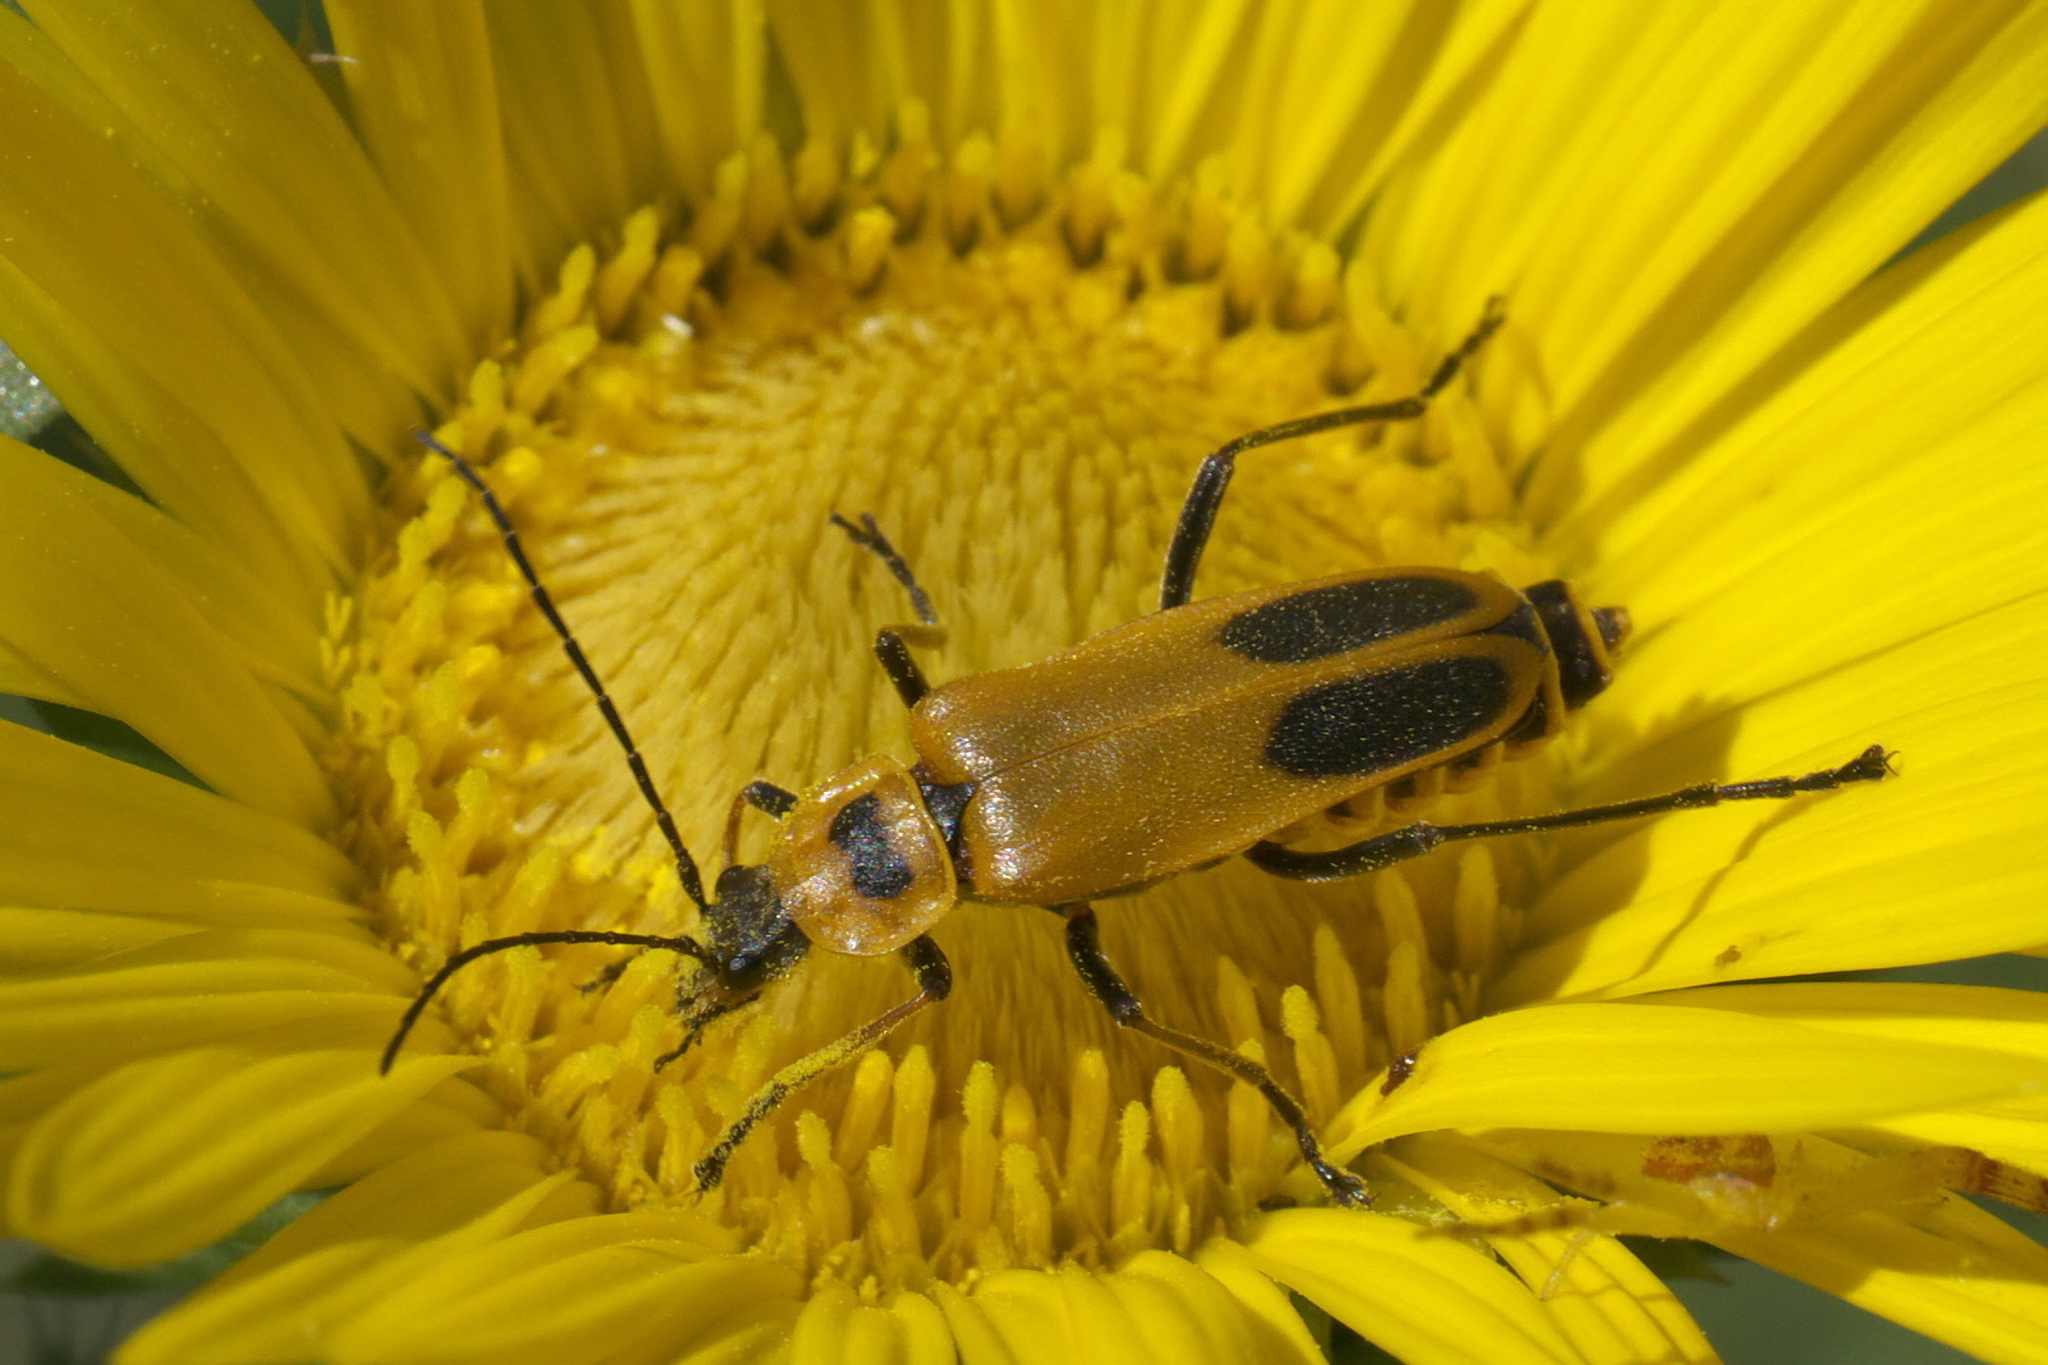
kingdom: Animalia
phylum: Arthropoda
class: Insecta
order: Coleoptera
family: Cantharidae
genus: Chauliognathus
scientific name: Chauliognathus pensylvanicus
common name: Goldenrod soldier beetle
